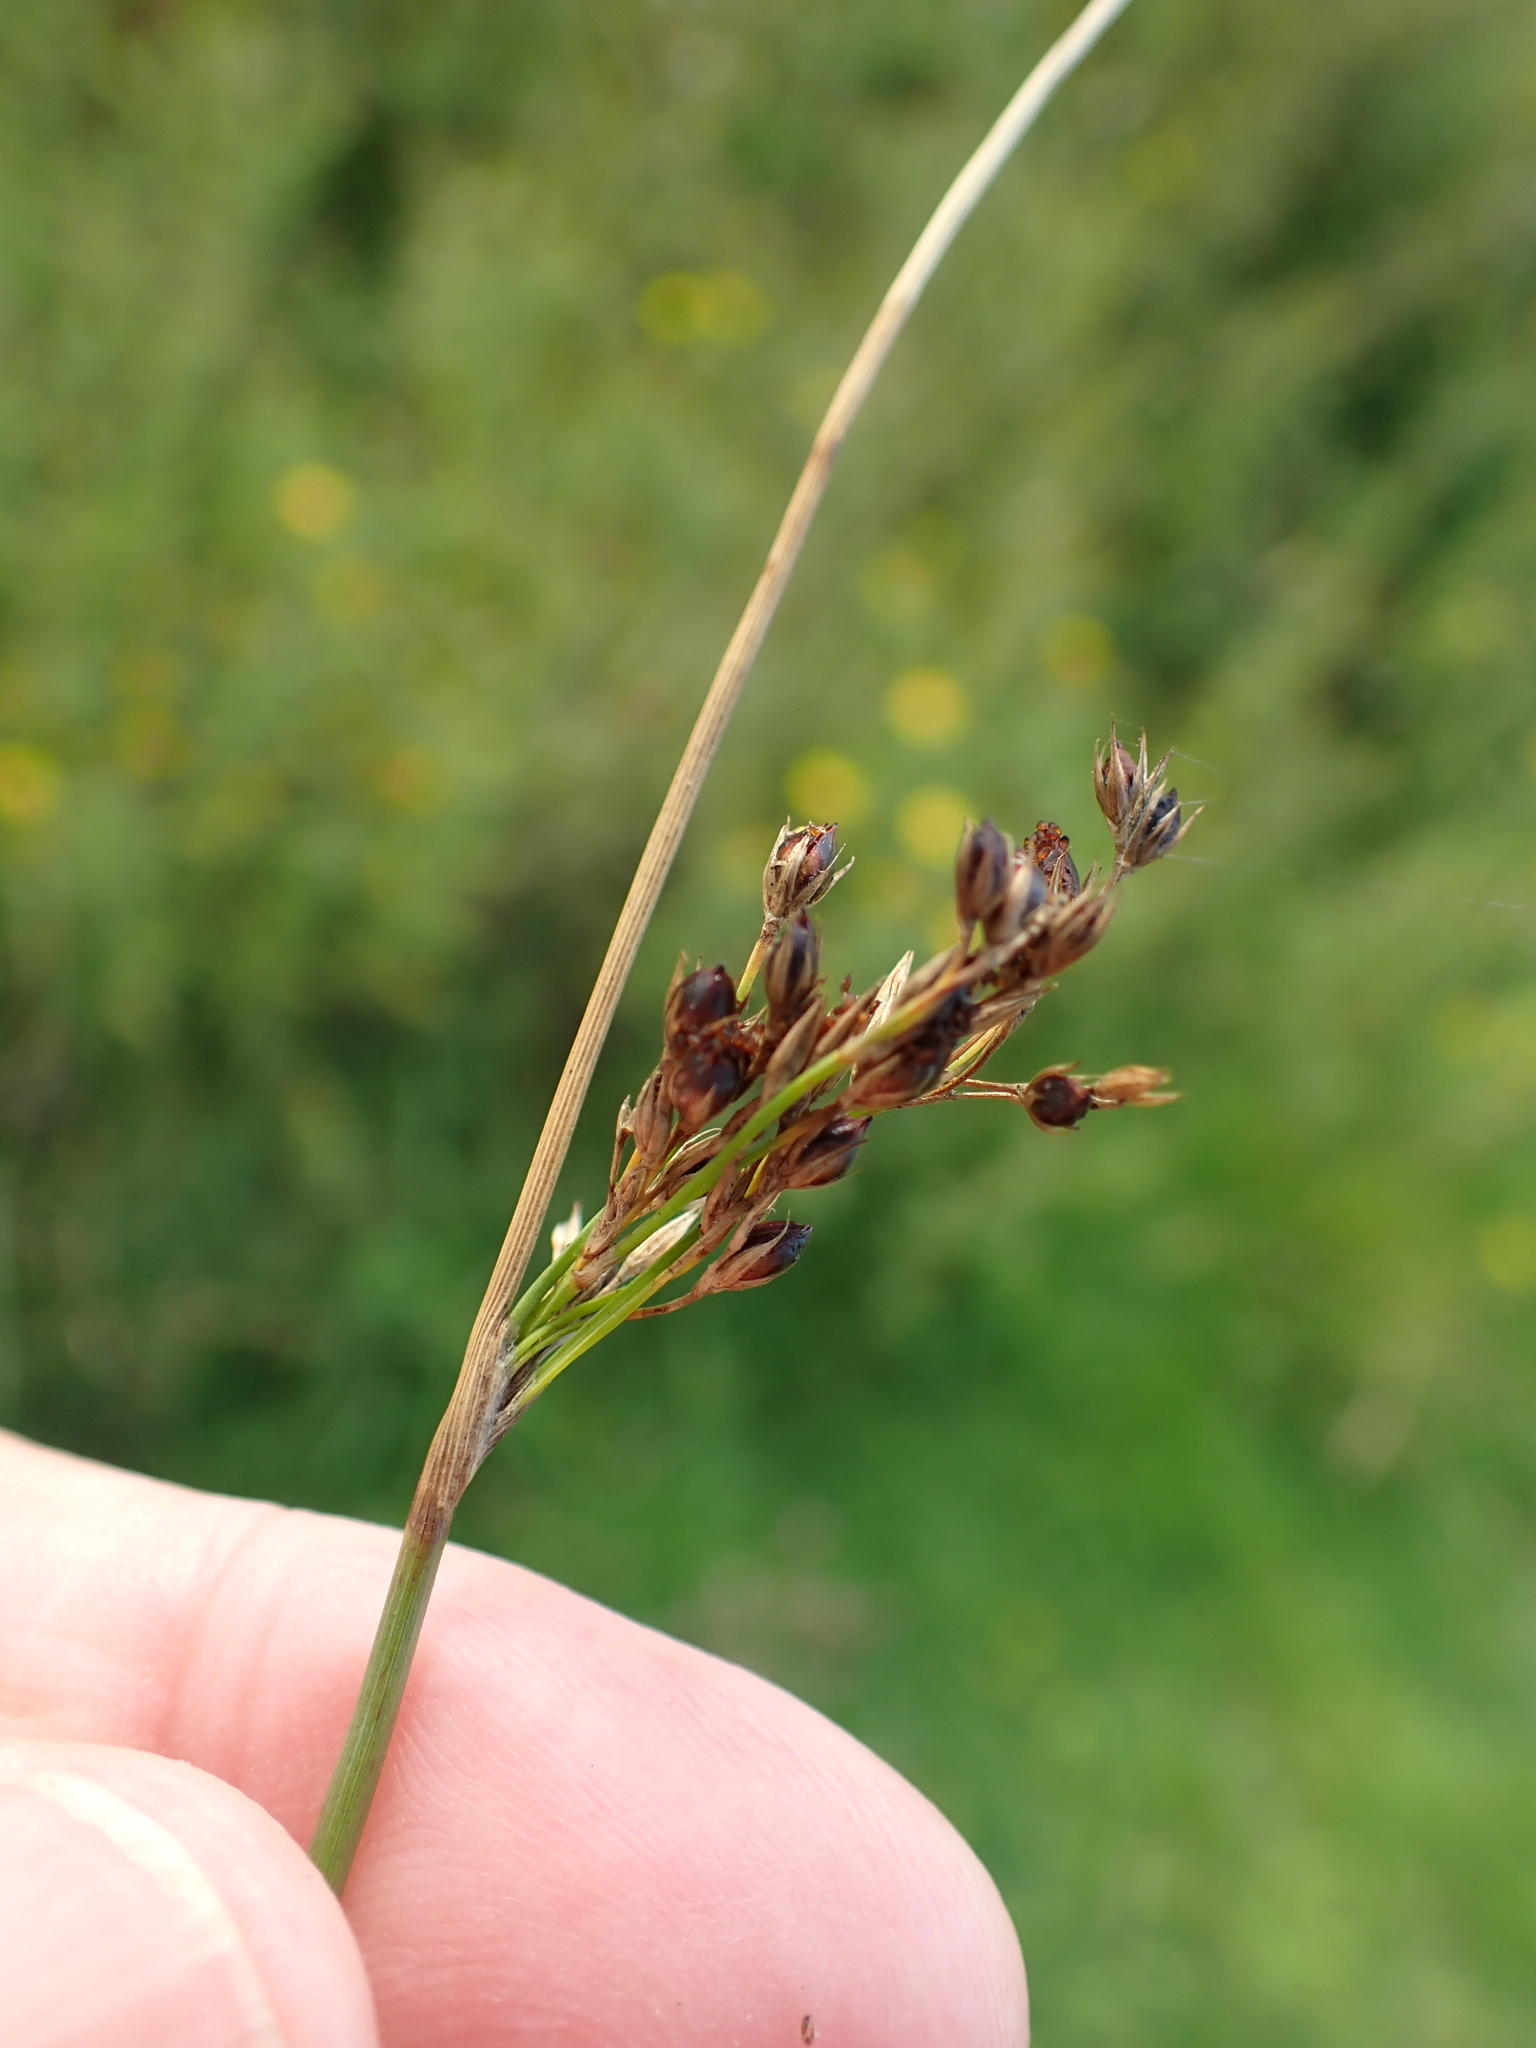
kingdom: Plantae
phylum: Tracheophyta
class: Liliopsida
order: Poales
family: Juncaceae
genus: Juncus
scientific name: Juncus inflexus
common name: Hard rush
